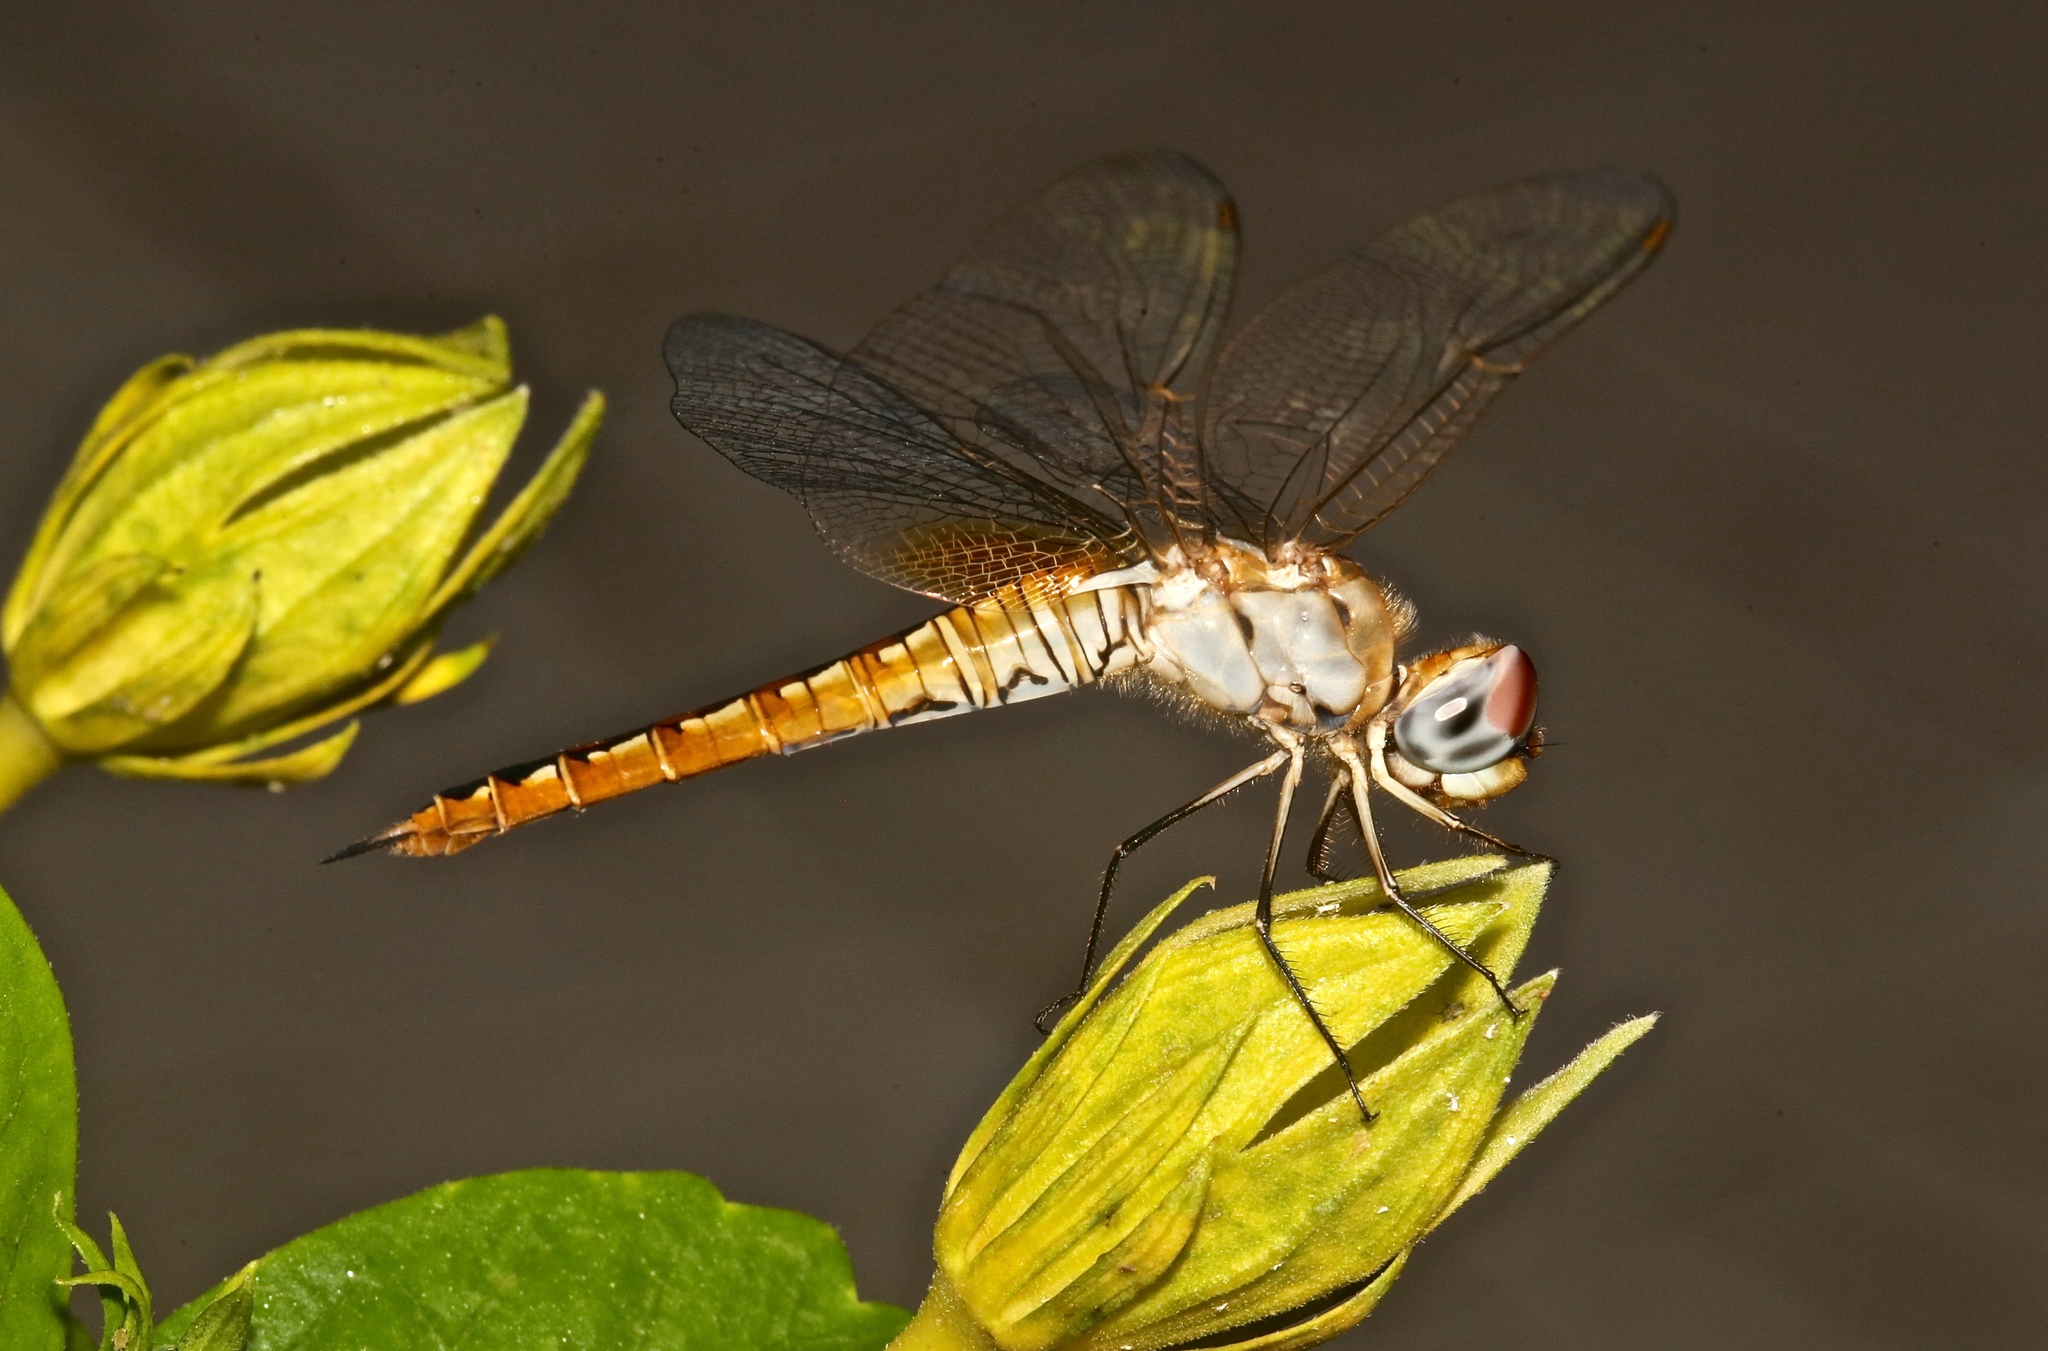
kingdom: Animalia
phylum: Arthropoda
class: Insecta
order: Odonata
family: Libellulidae
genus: Pantala
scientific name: Pantala hymenaea
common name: Spot-winged glider
